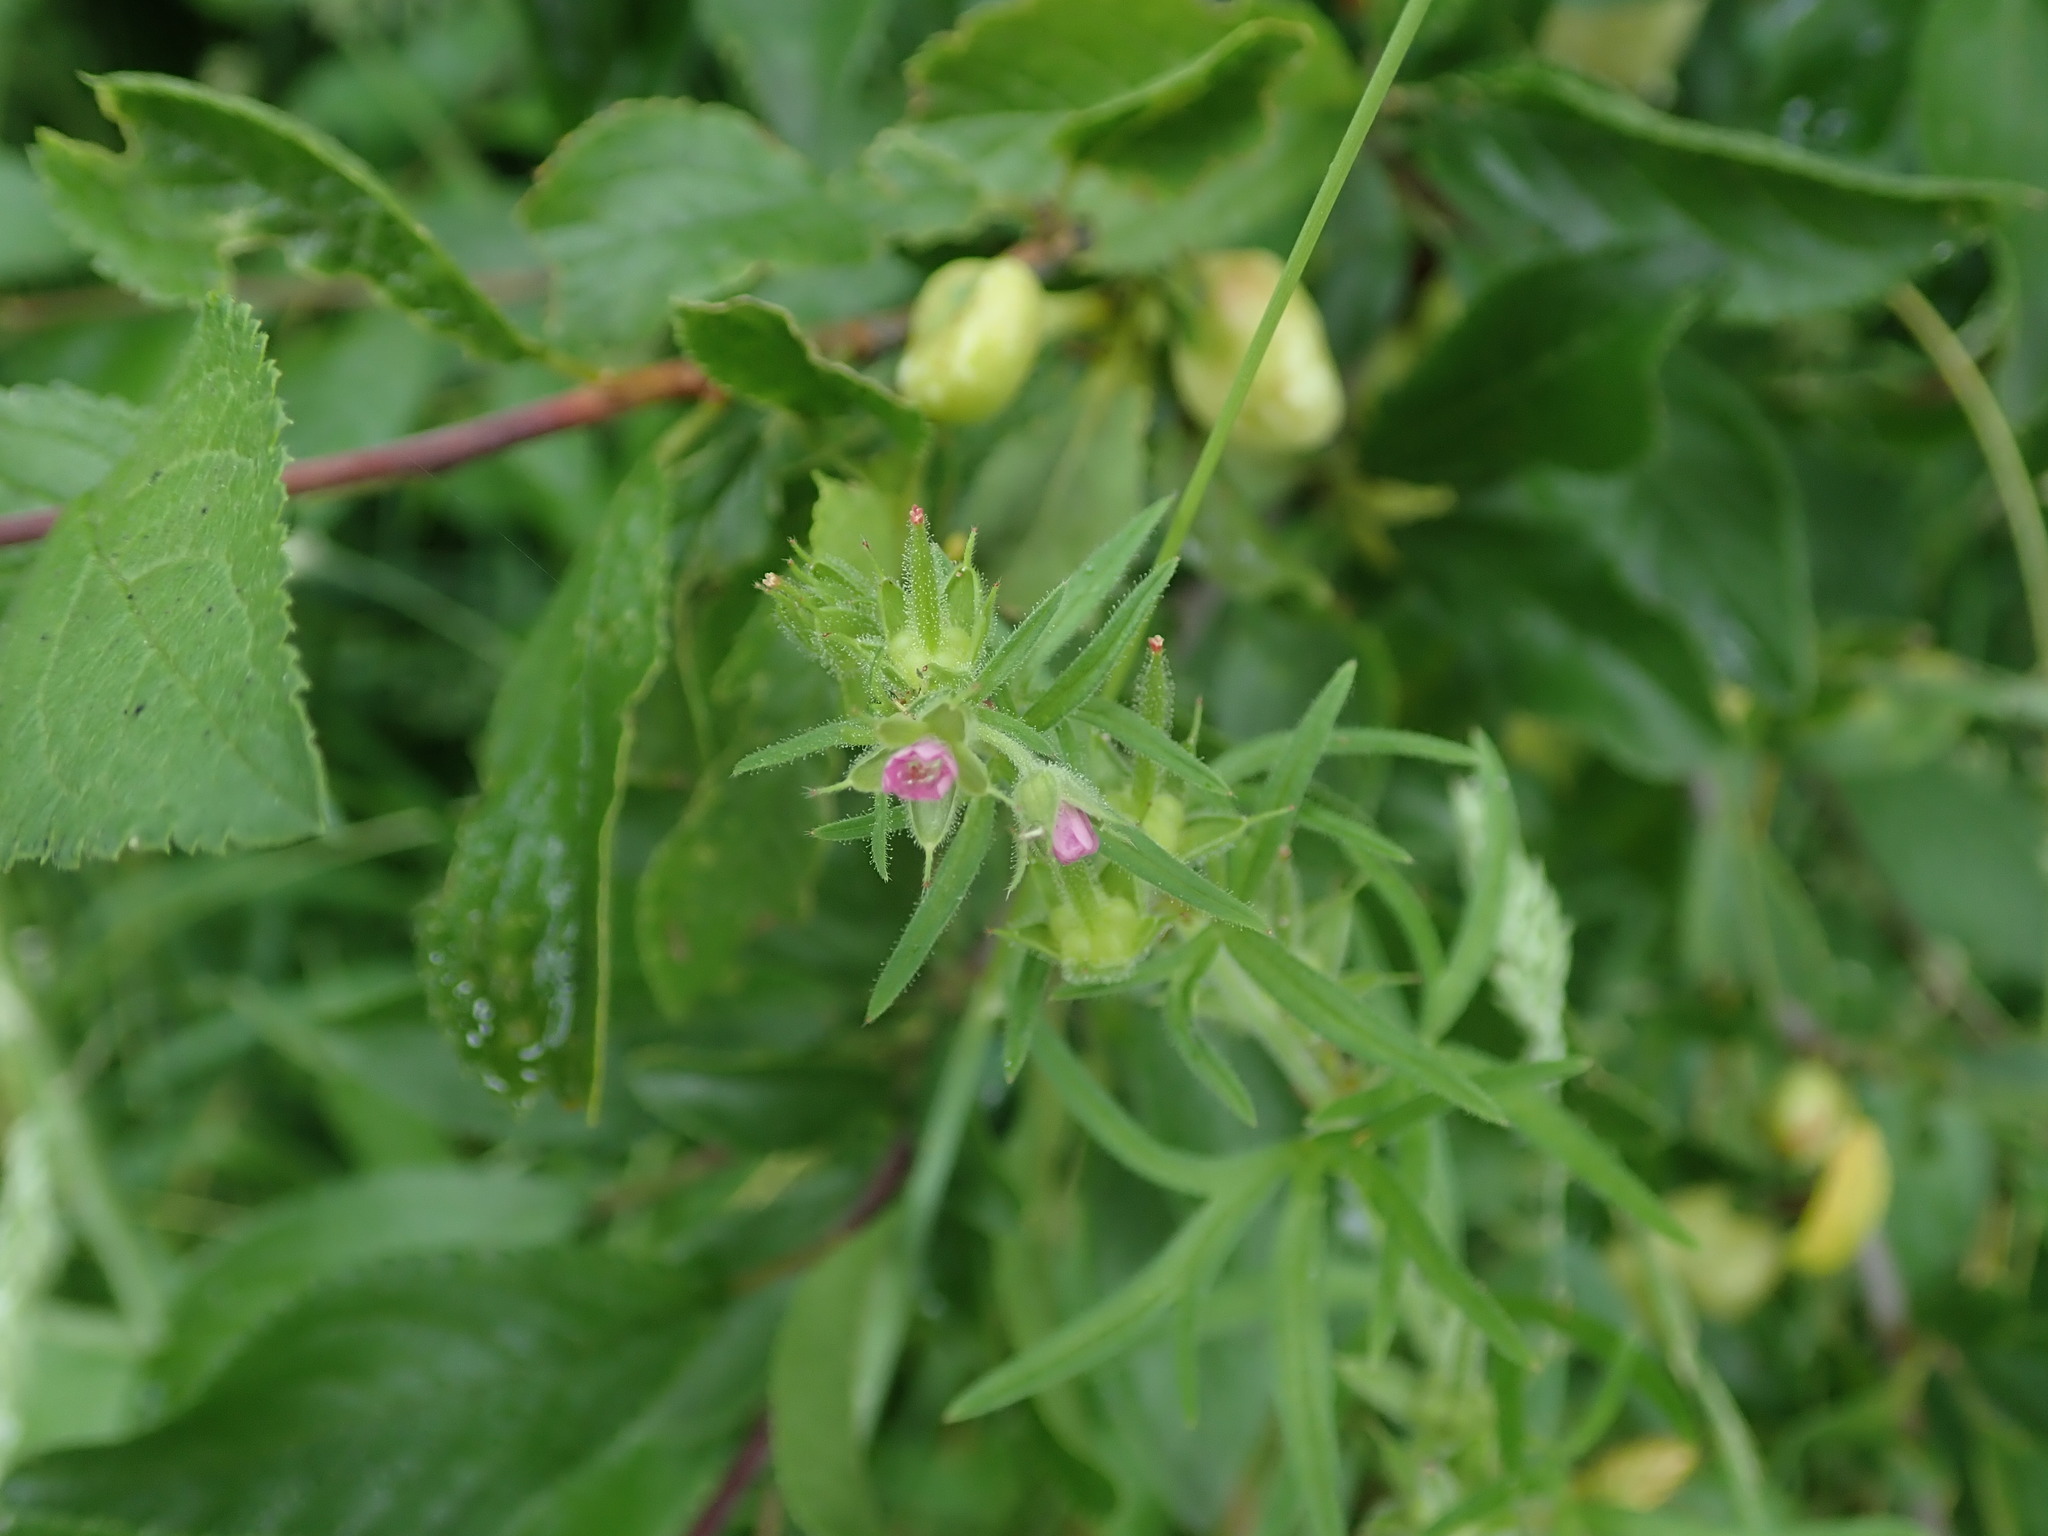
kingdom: Plantae
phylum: Tracheophyta
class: Magnoliopsida
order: Geraniales
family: Geraniaceae
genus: Geranium
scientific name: Geranium dissectum
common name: Cut-leaved crane's-bill
